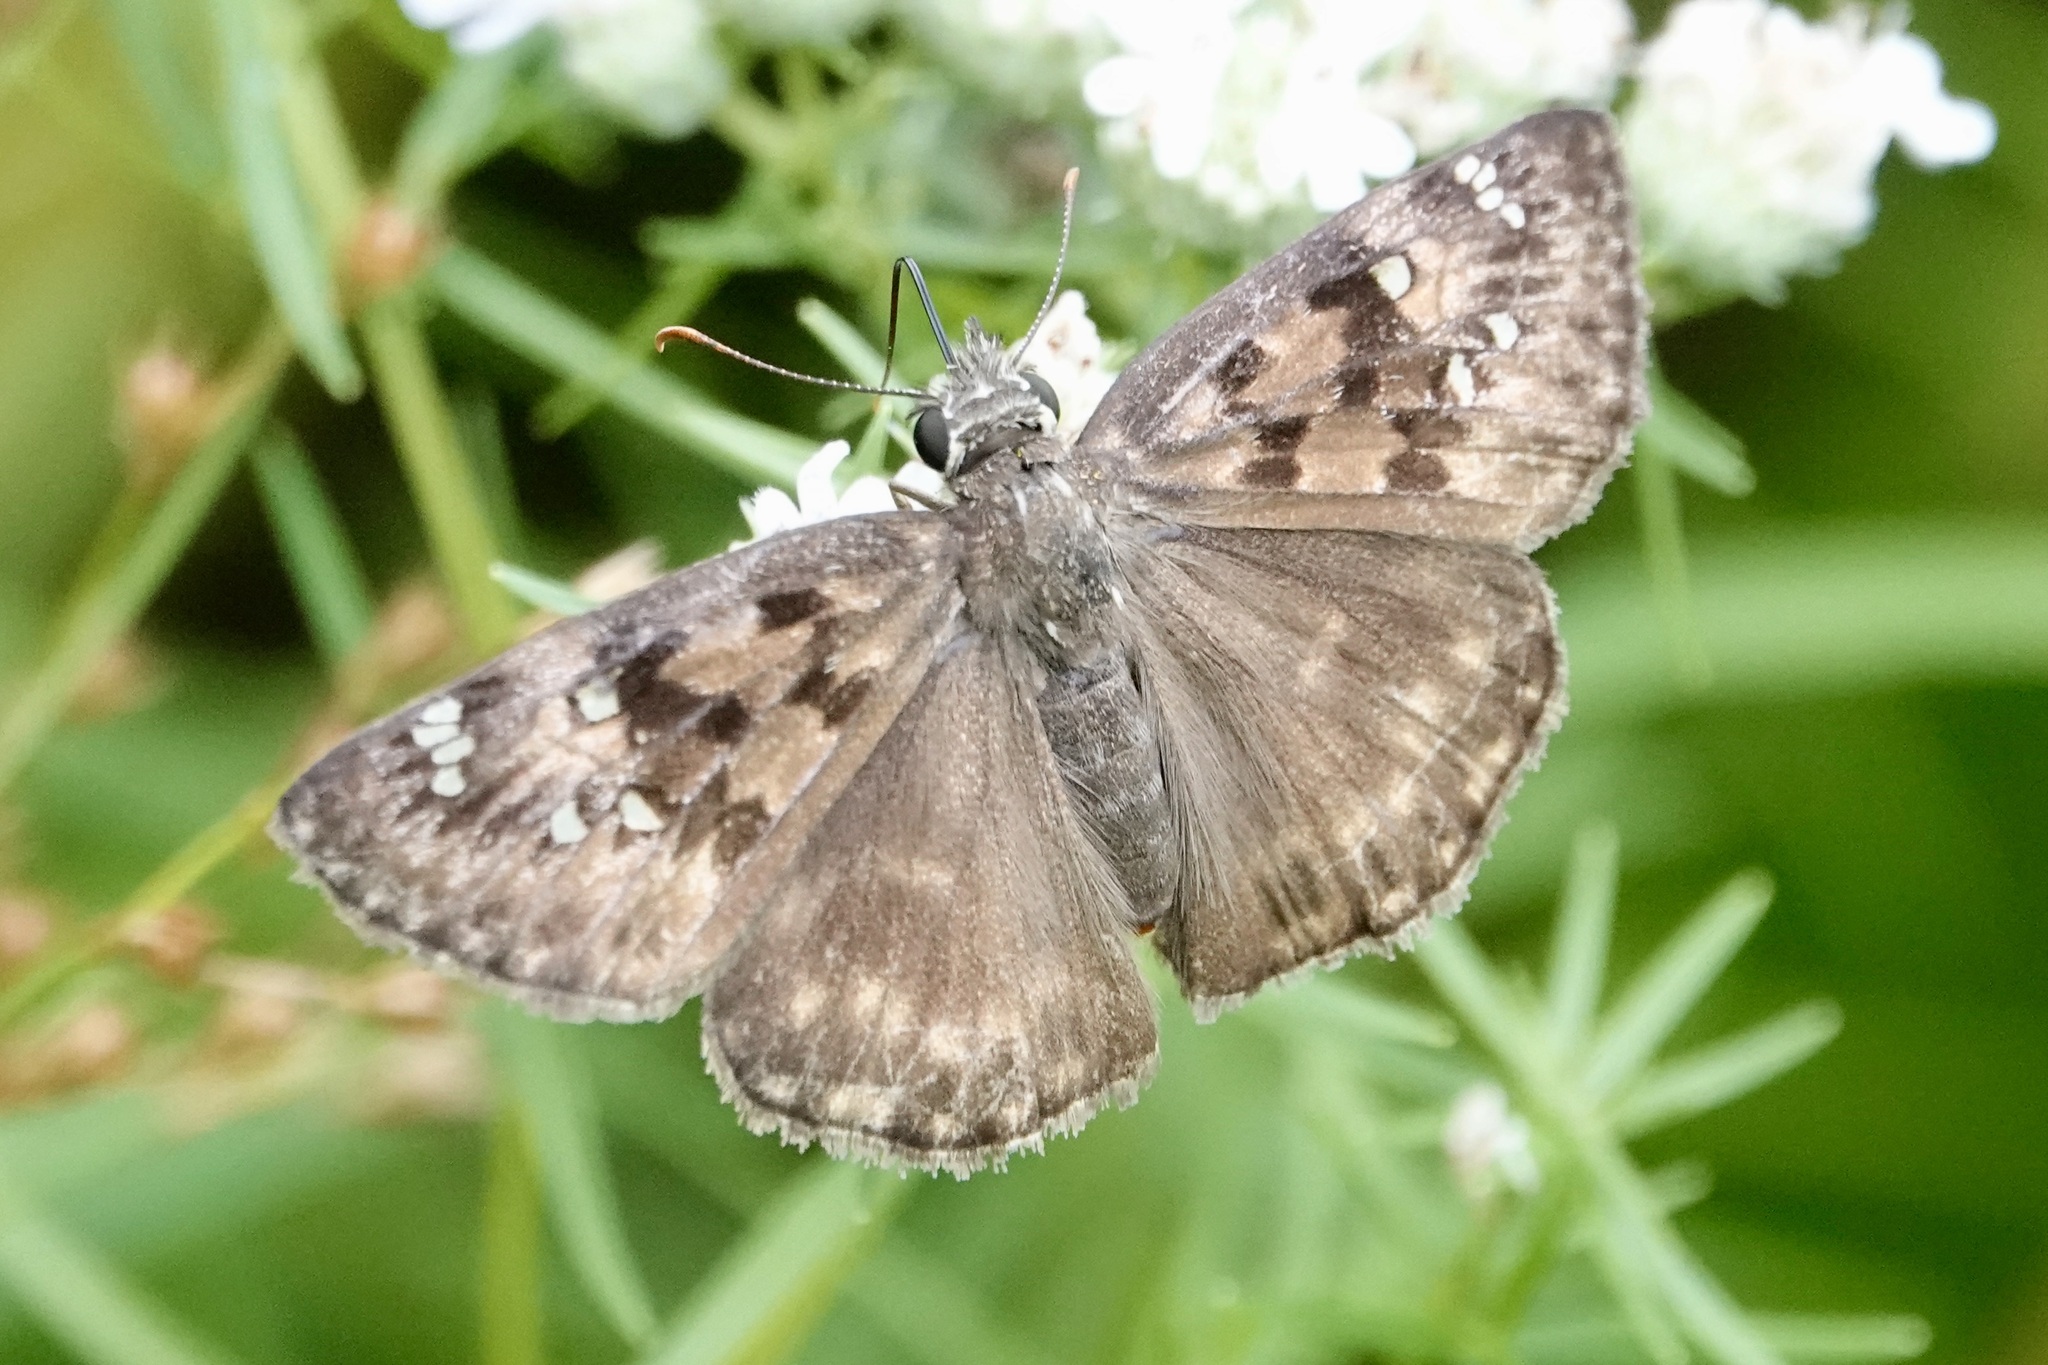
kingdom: Animalia
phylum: Arthropoda
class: Insecta
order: Lepidoptera
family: Hesperiidae
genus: Erynnis
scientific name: Erynnis horatius
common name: Horace's duskywing
